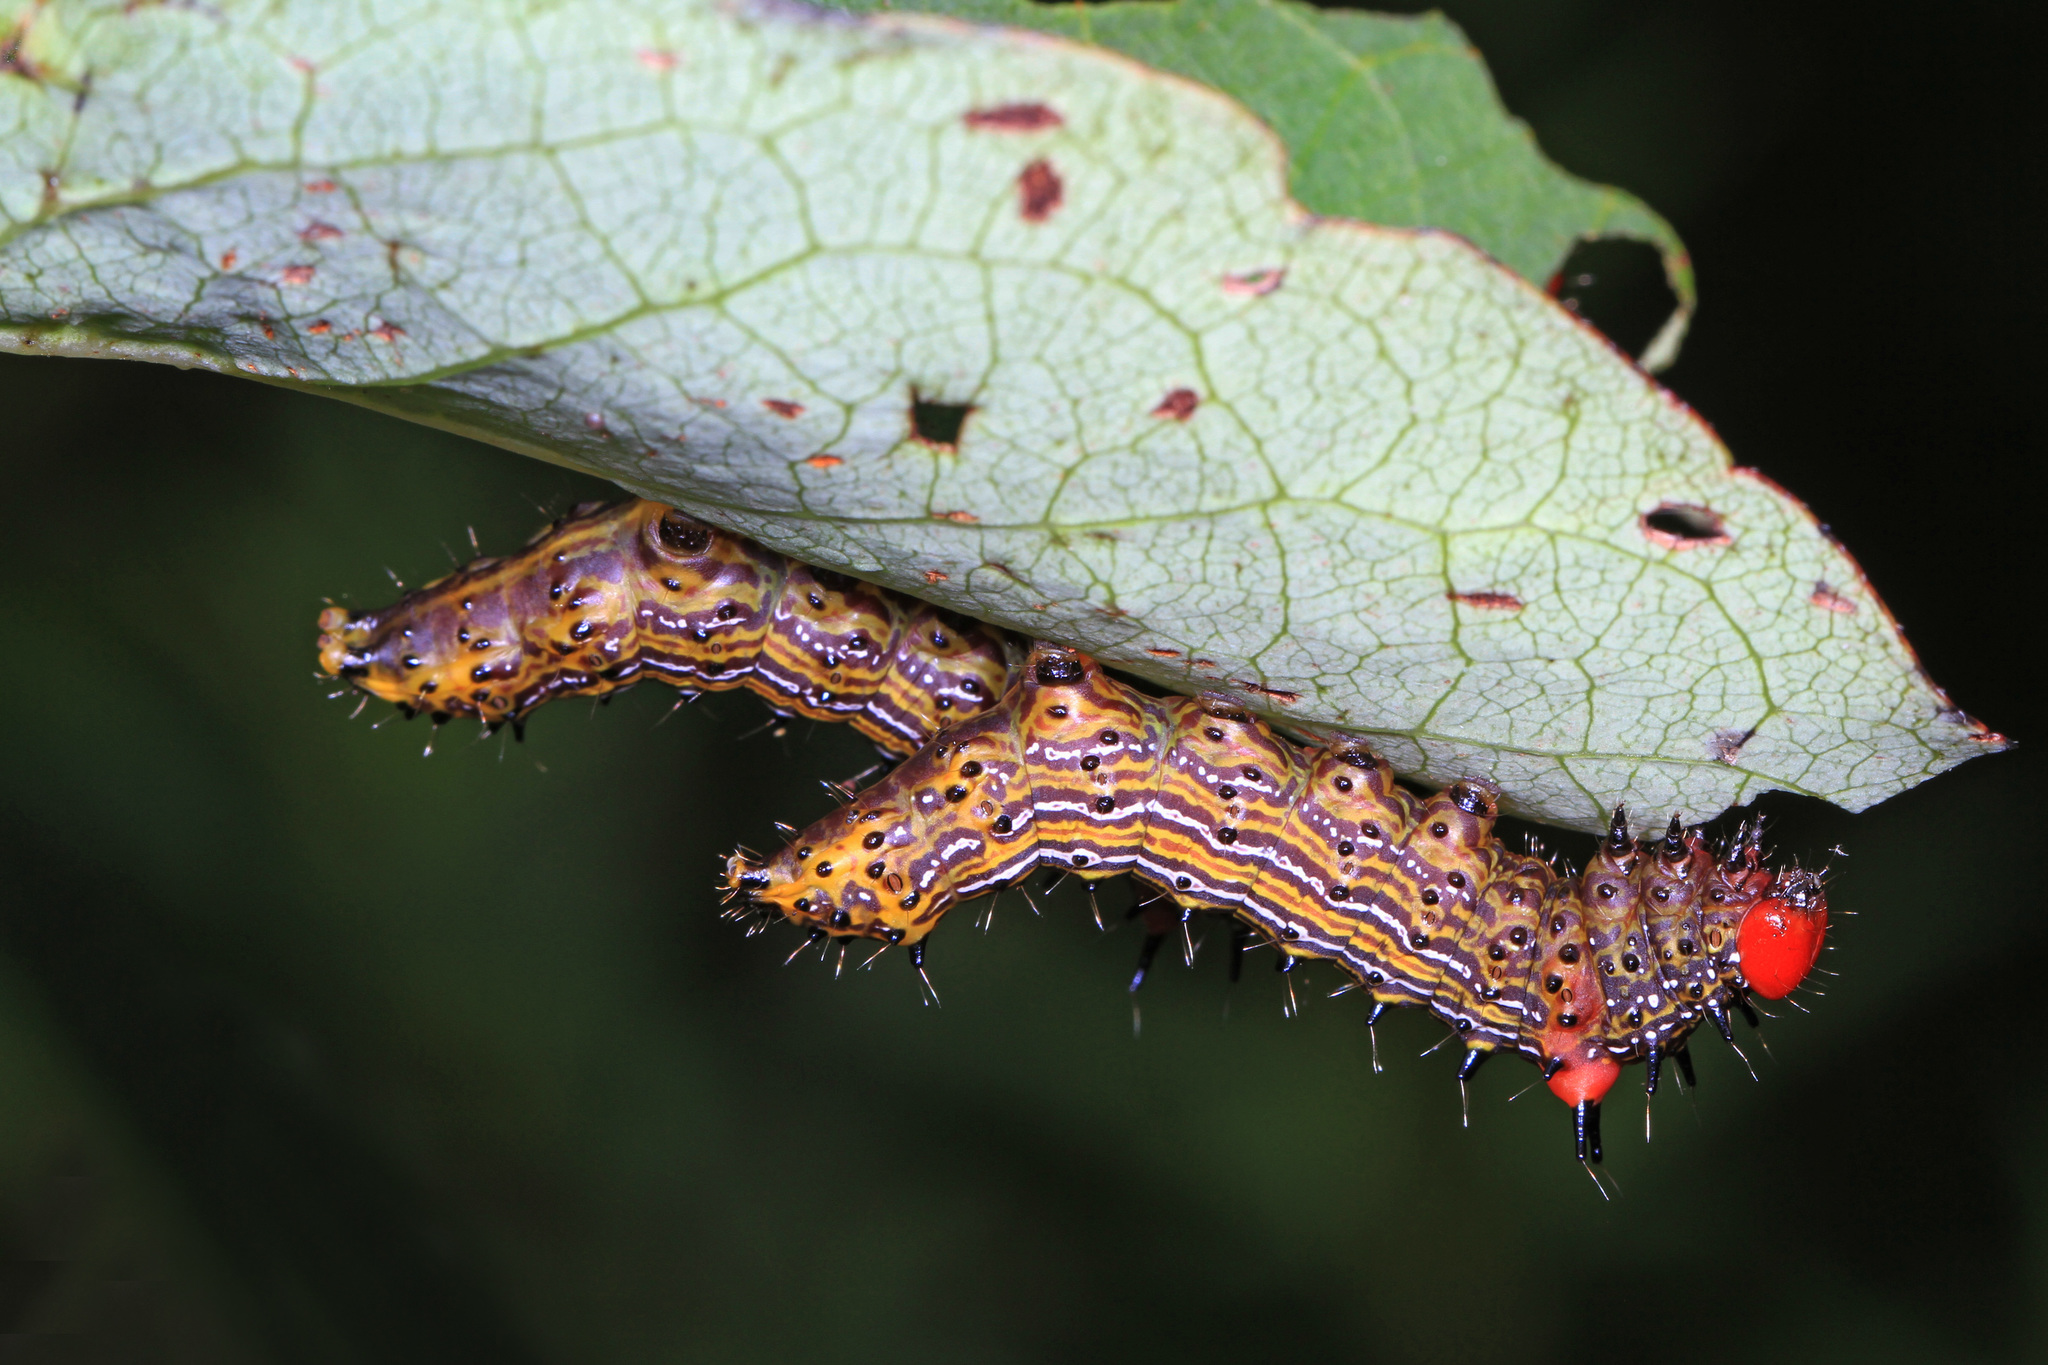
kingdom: Animalia
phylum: Arthropoda
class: Insecta
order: Lepidoptera
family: Notodontidae
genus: Schizura
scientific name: Schizura
